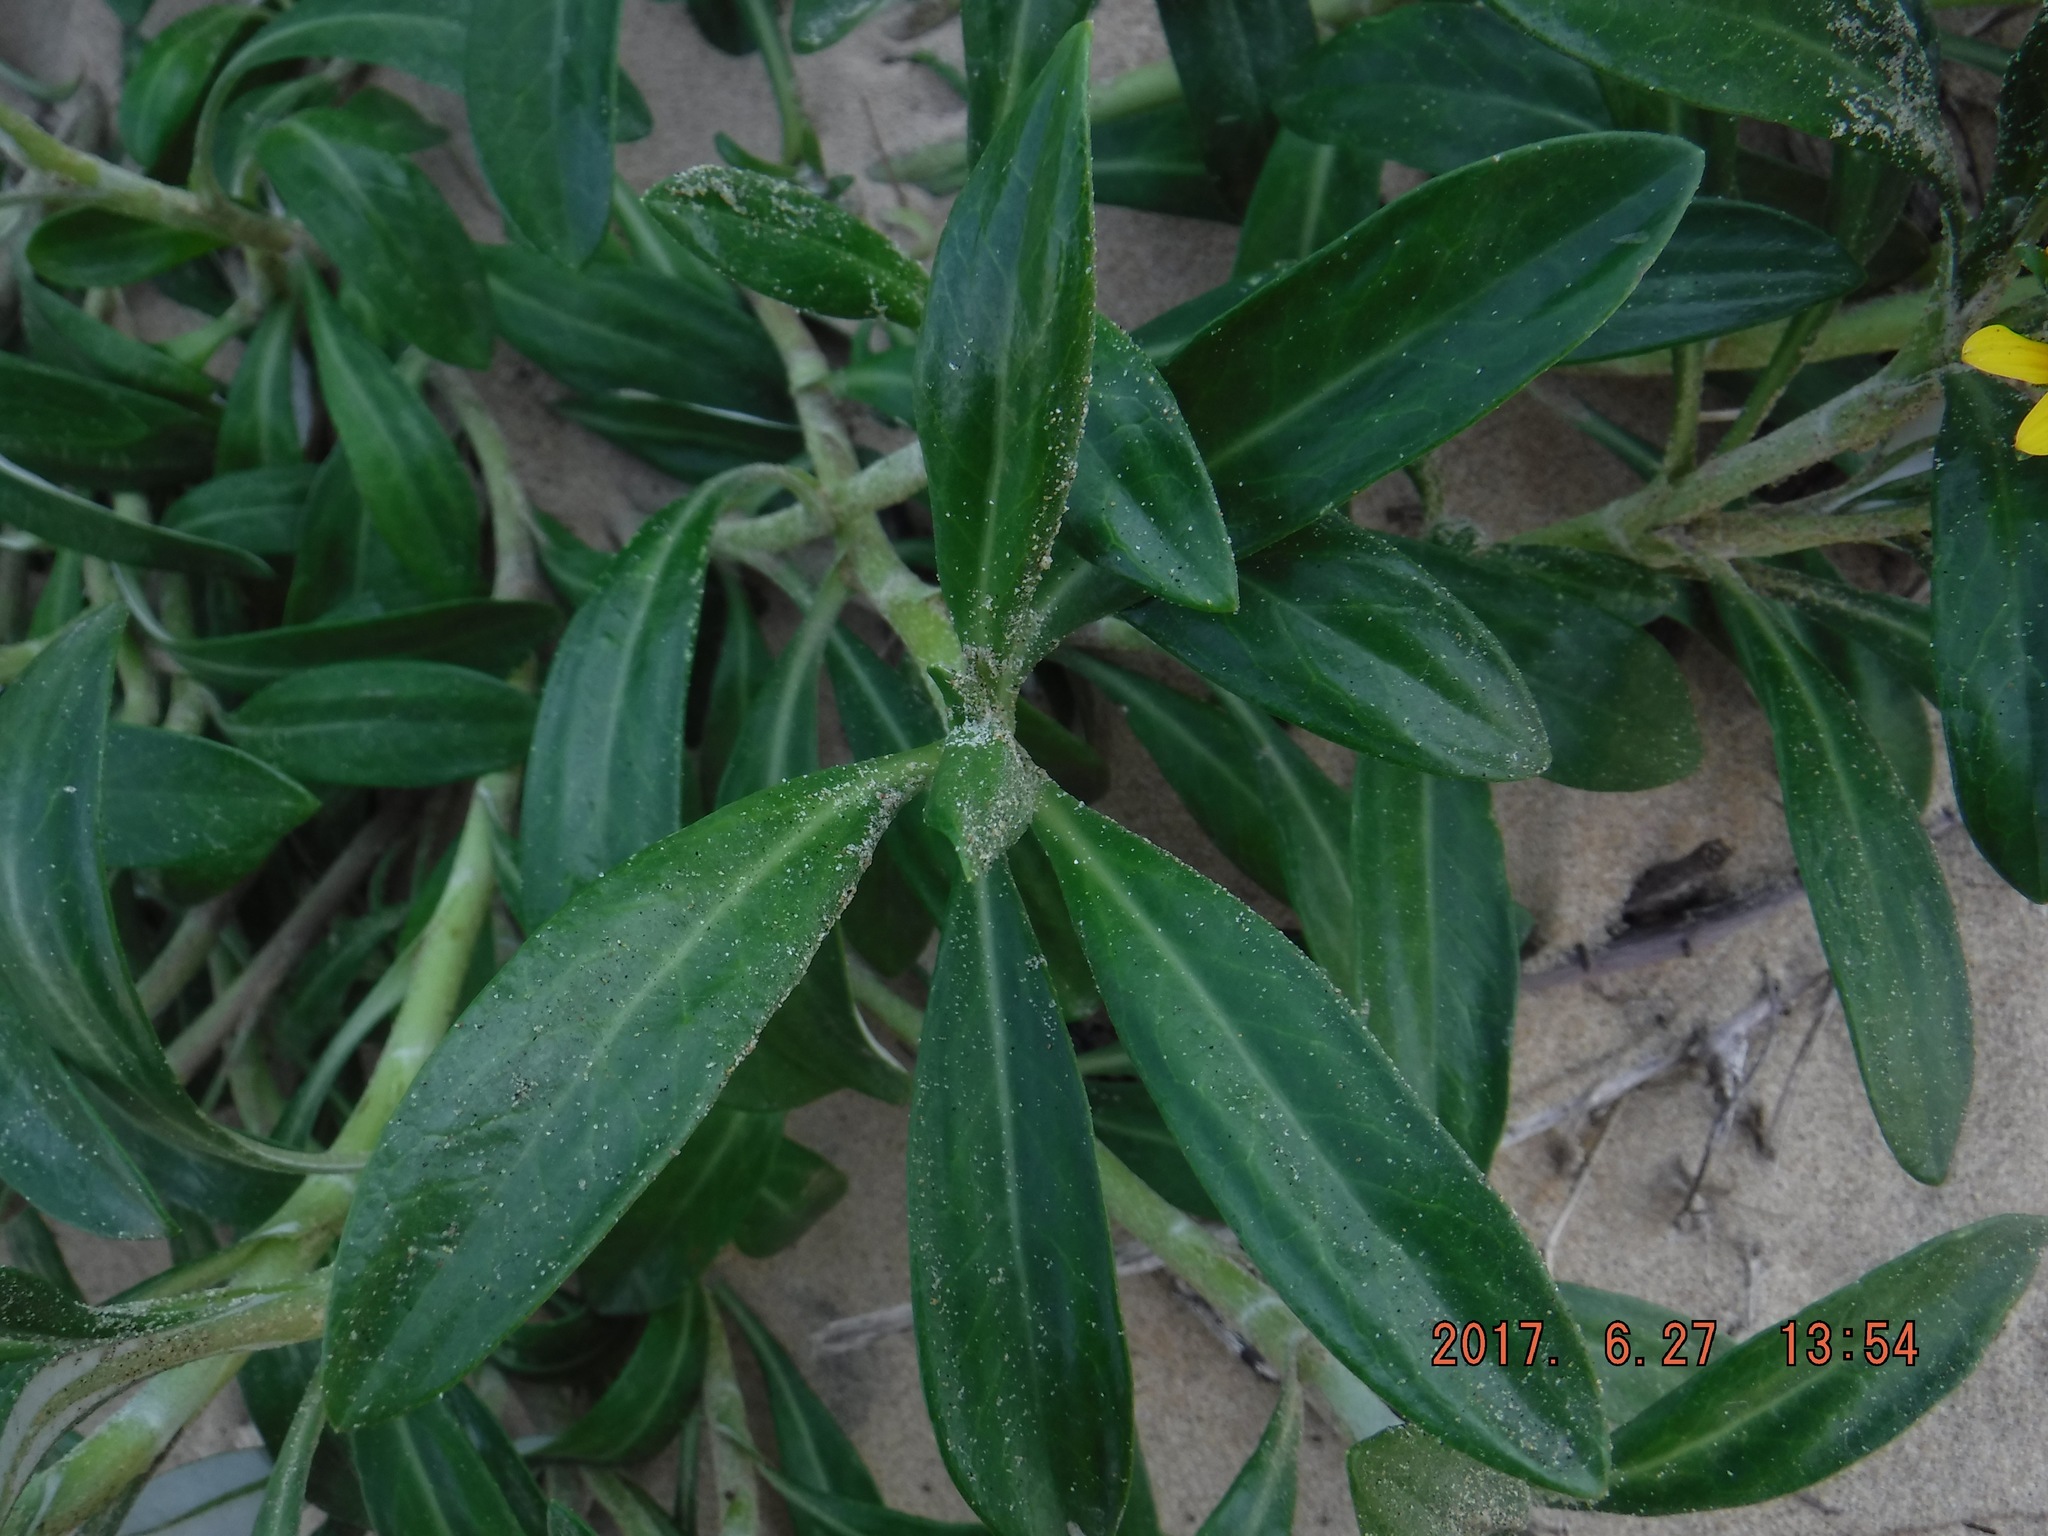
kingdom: Plantae
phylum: Tracheophyta
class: Magnoliopsida
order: Asterales
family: Asteraceae
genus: Gazania
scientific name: Gazania rigens
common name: Treasureflower
